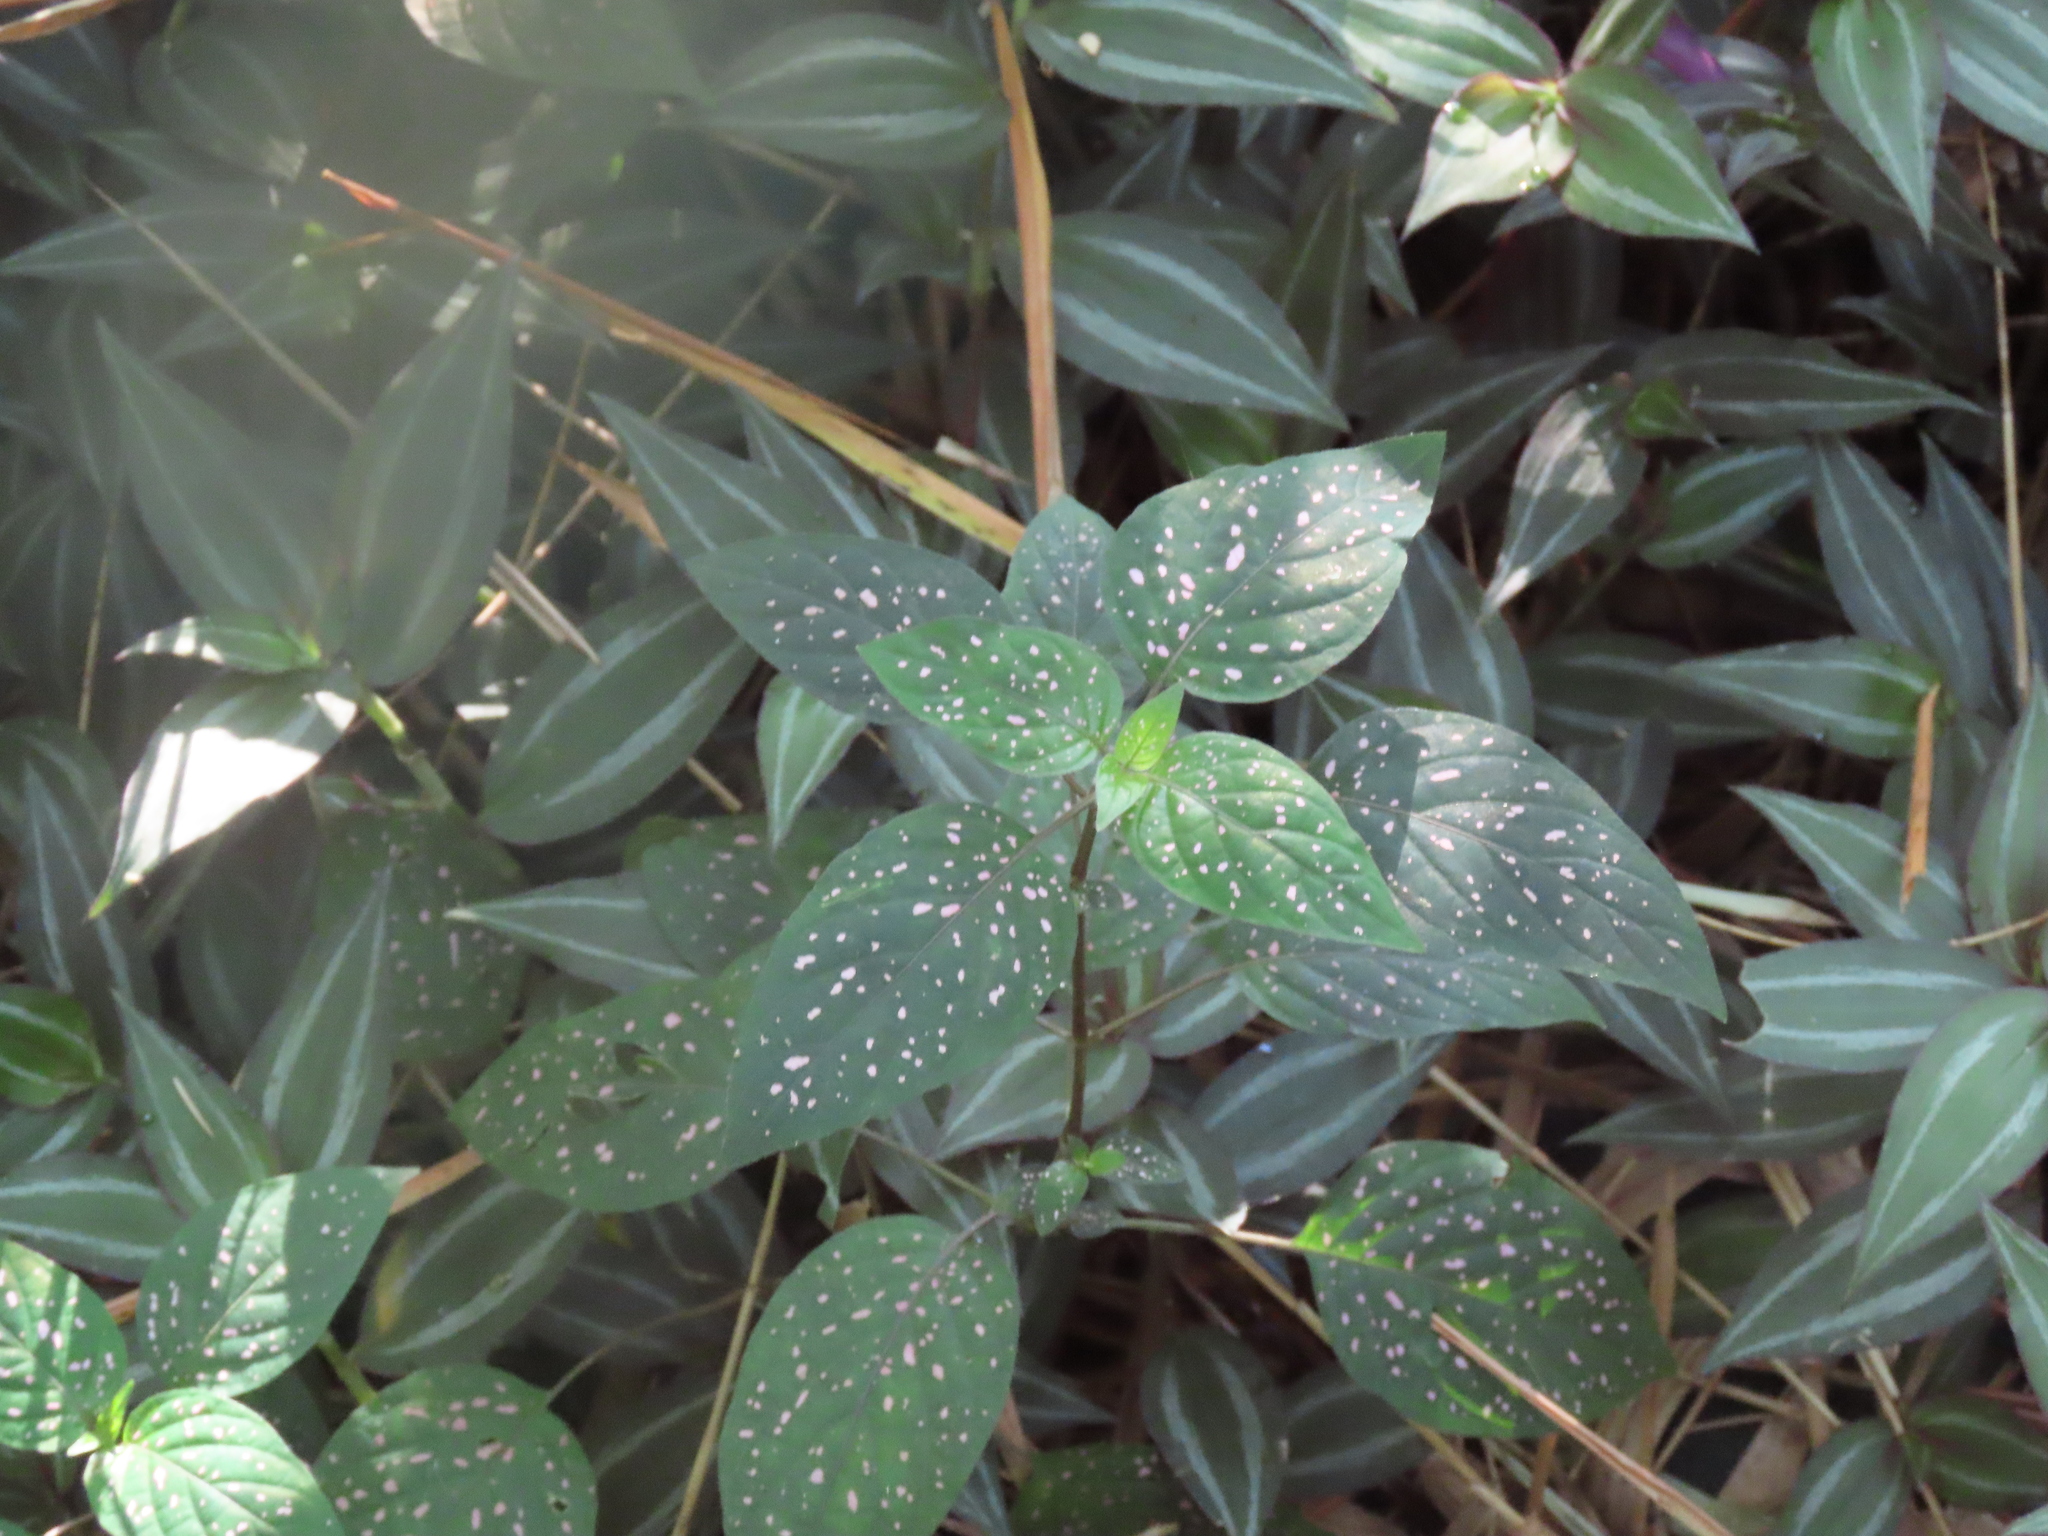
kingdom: Plantae
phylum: Tracheophyta
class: Magnoliopsida
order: Lamiales
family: Acanthaceae
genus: Hypoestes
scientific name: Hypoestes phyllostachya
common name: Polkadot-plant
